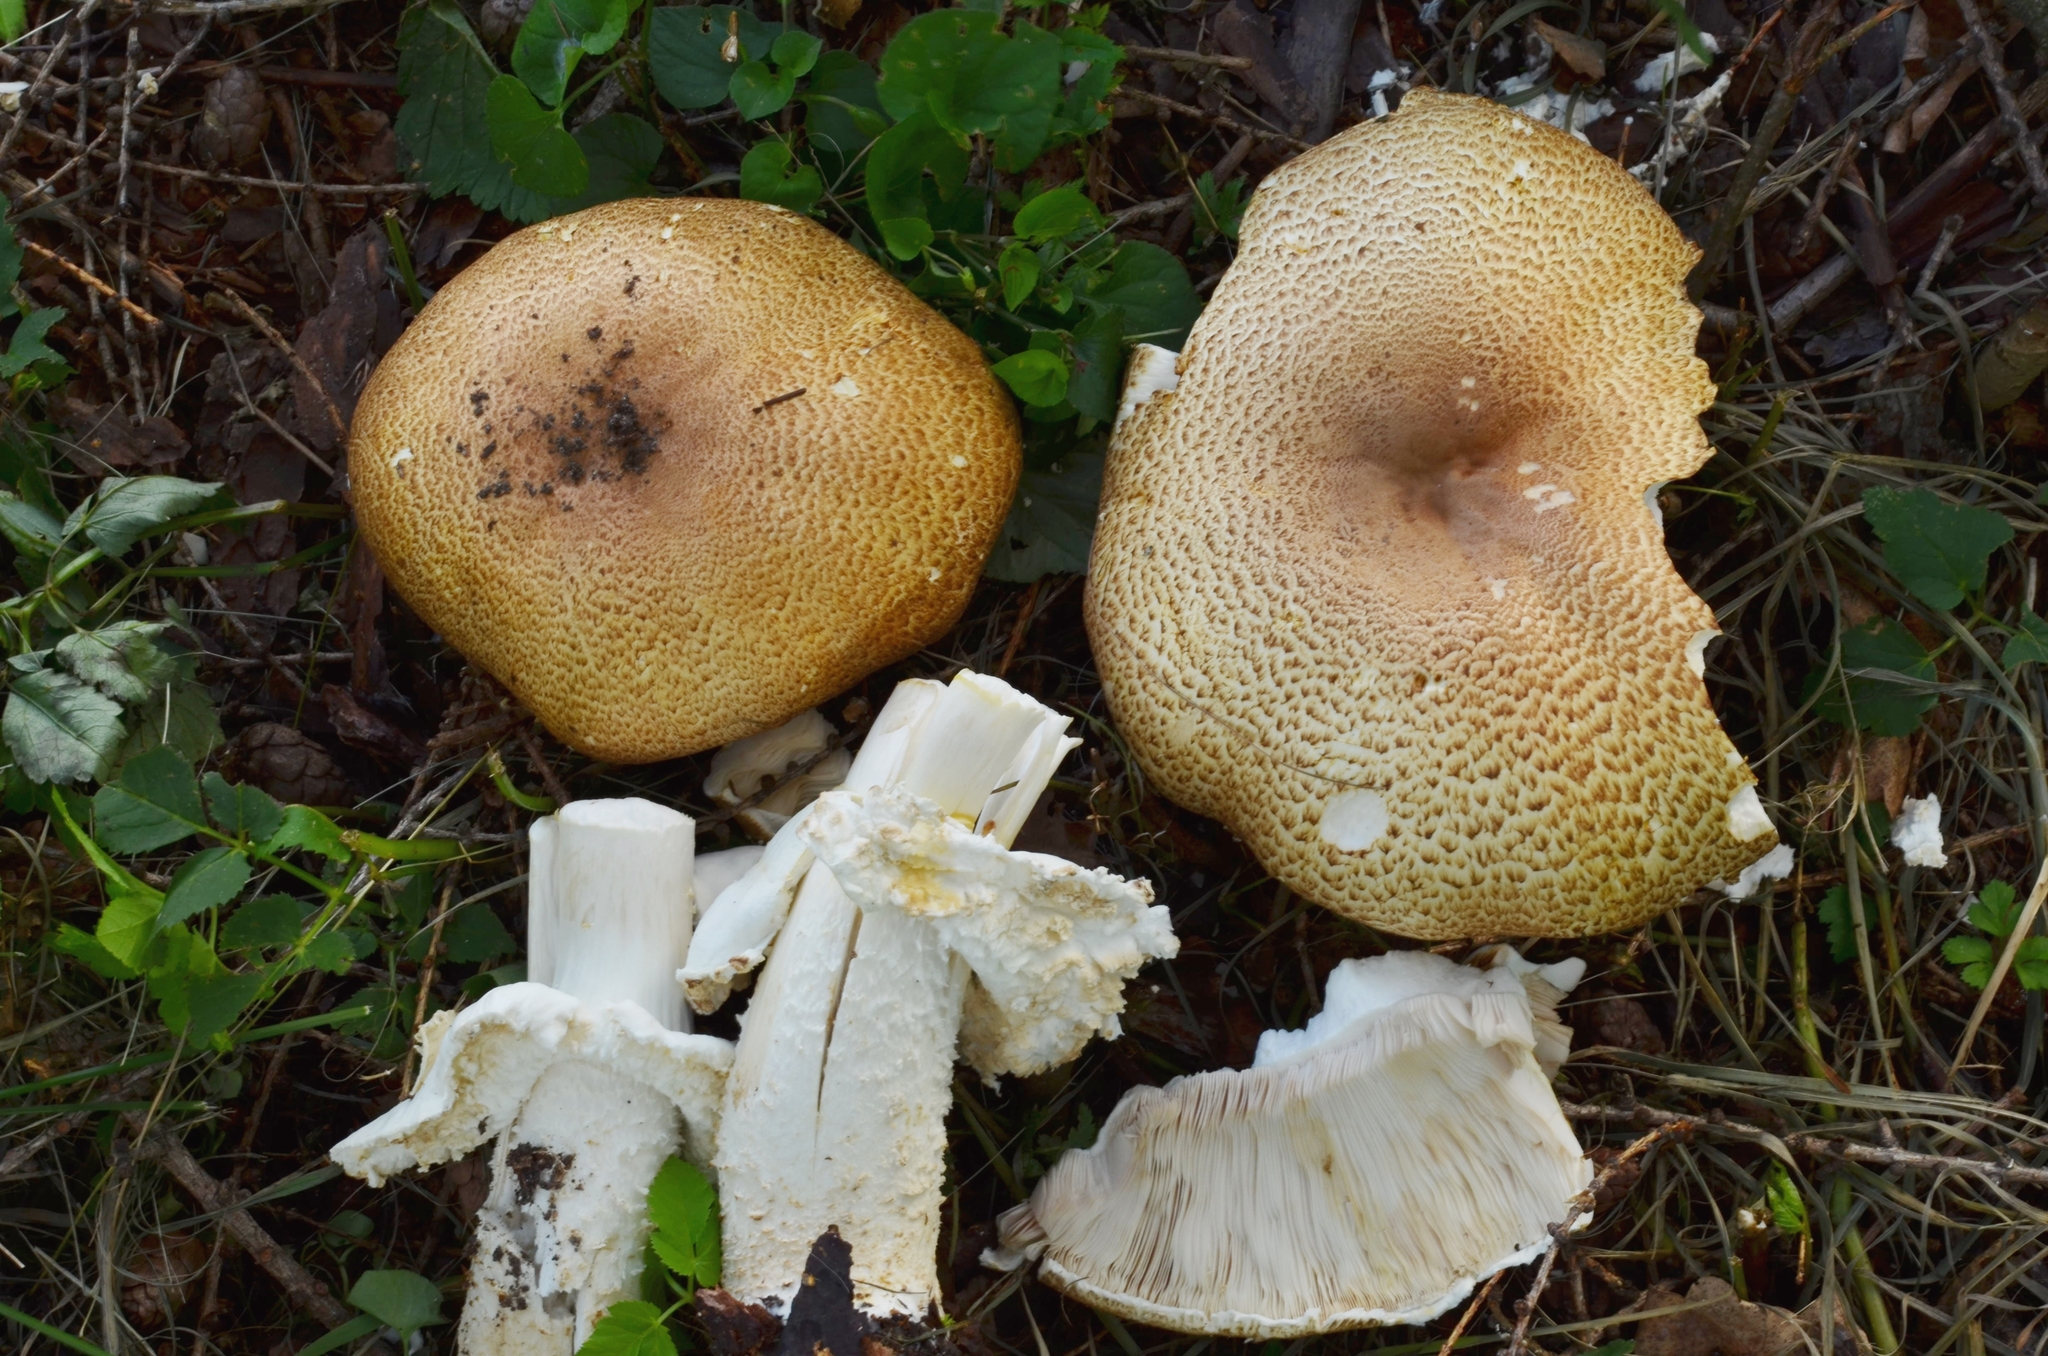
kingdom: Fungi
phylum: Basidiomycota
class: Agaricomycetes
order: Agaricales
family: Agaricaceae
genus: Agaricus
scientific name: Agaricus augustus
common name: Prince
